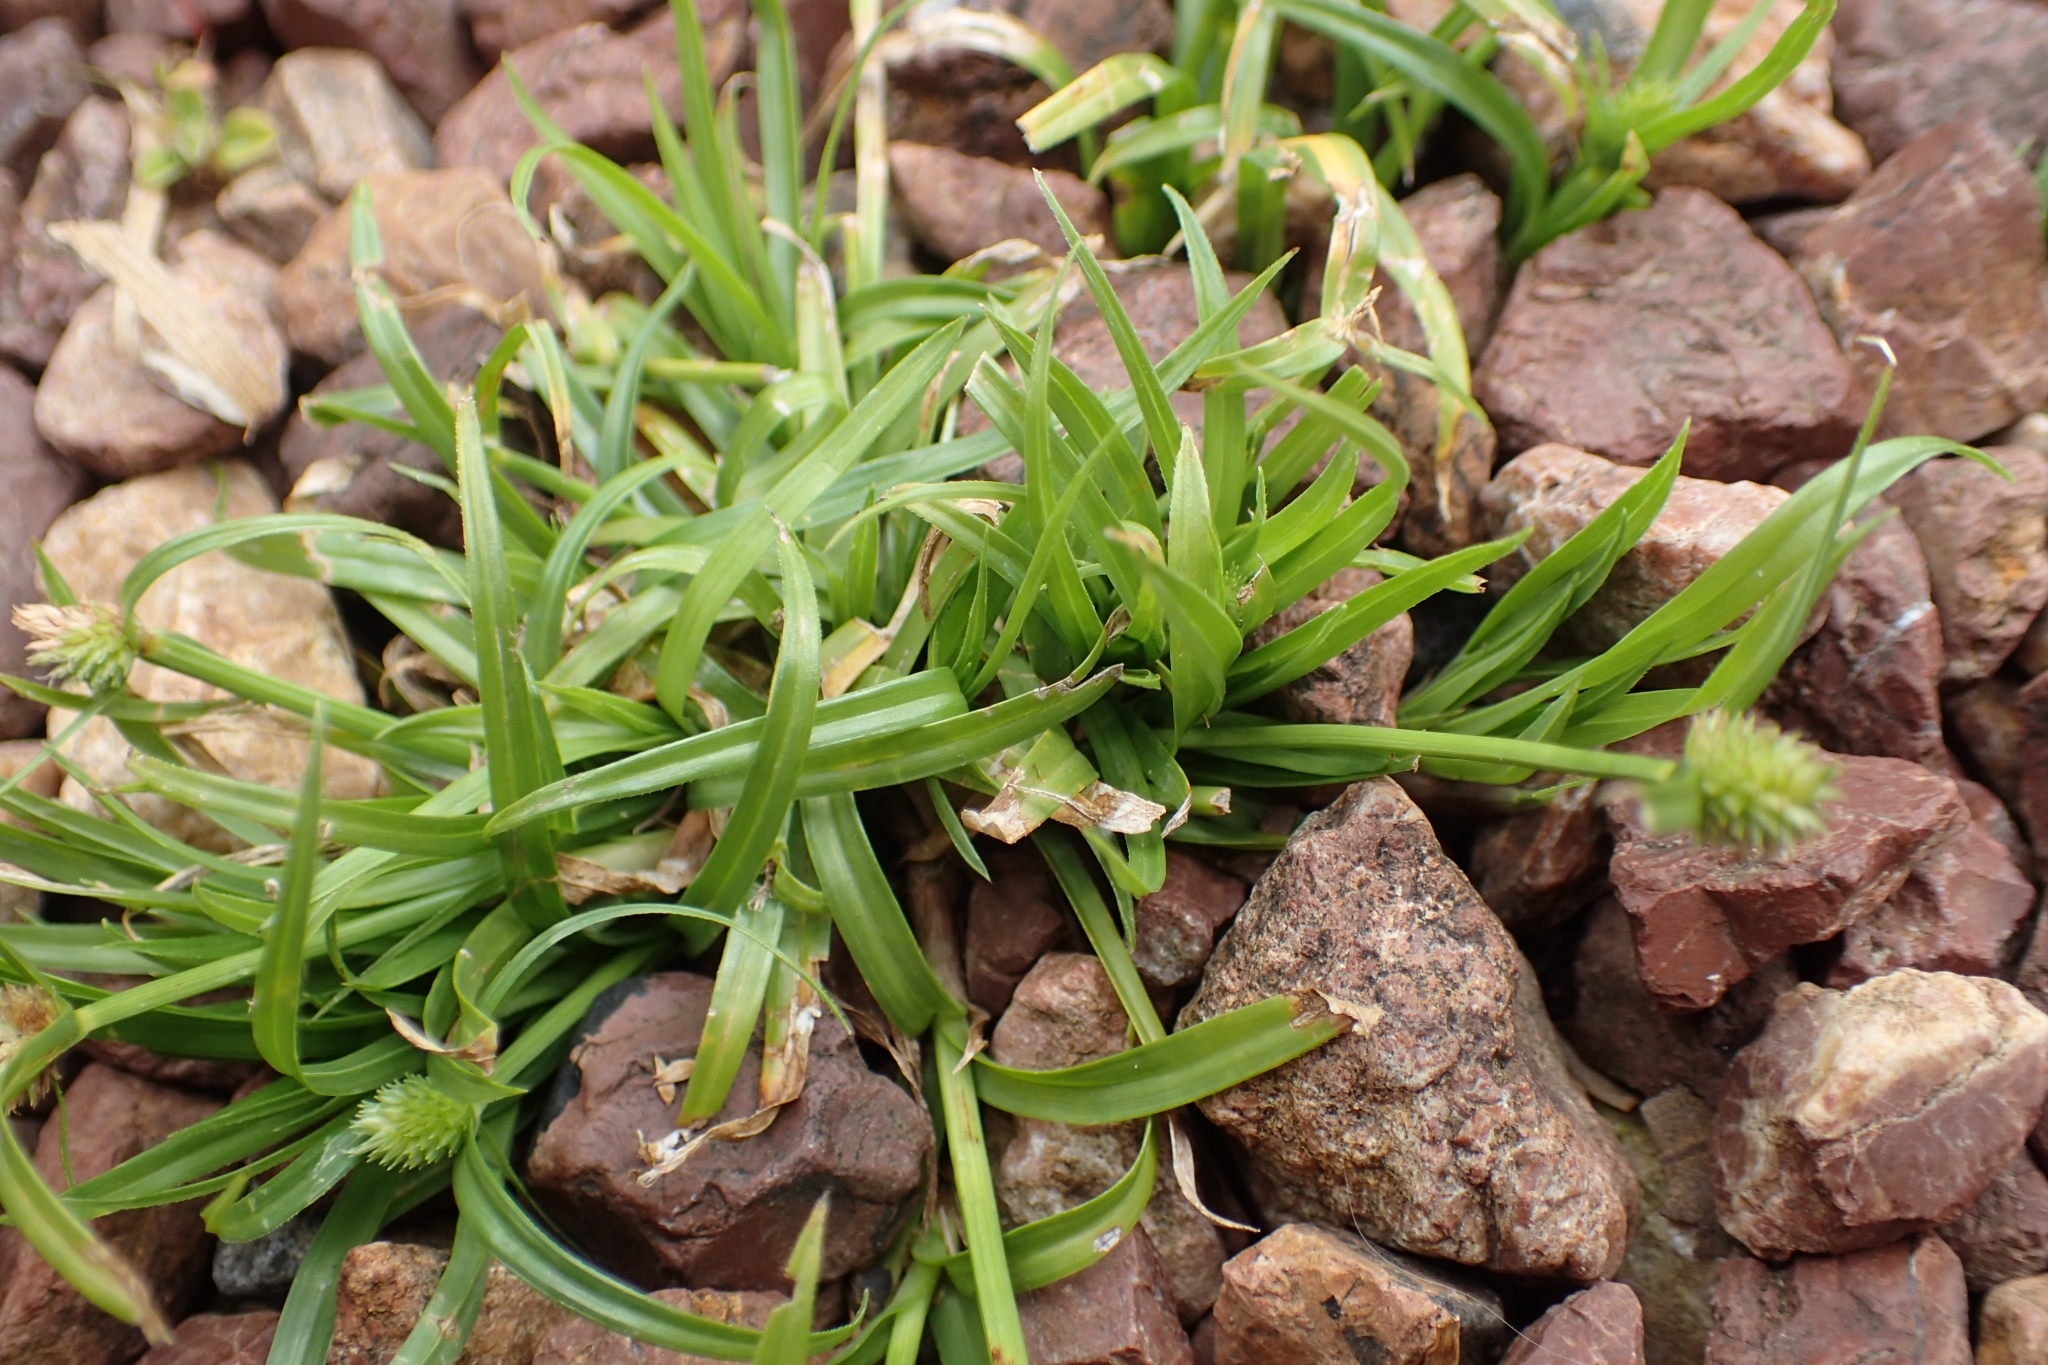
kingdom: Plantae
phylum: Tracheophyta
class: Liliopsida
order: Poales
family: Cyperaceae
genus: Cyperus
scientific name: Cyperus brevifolius
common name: Globe kyllinga
